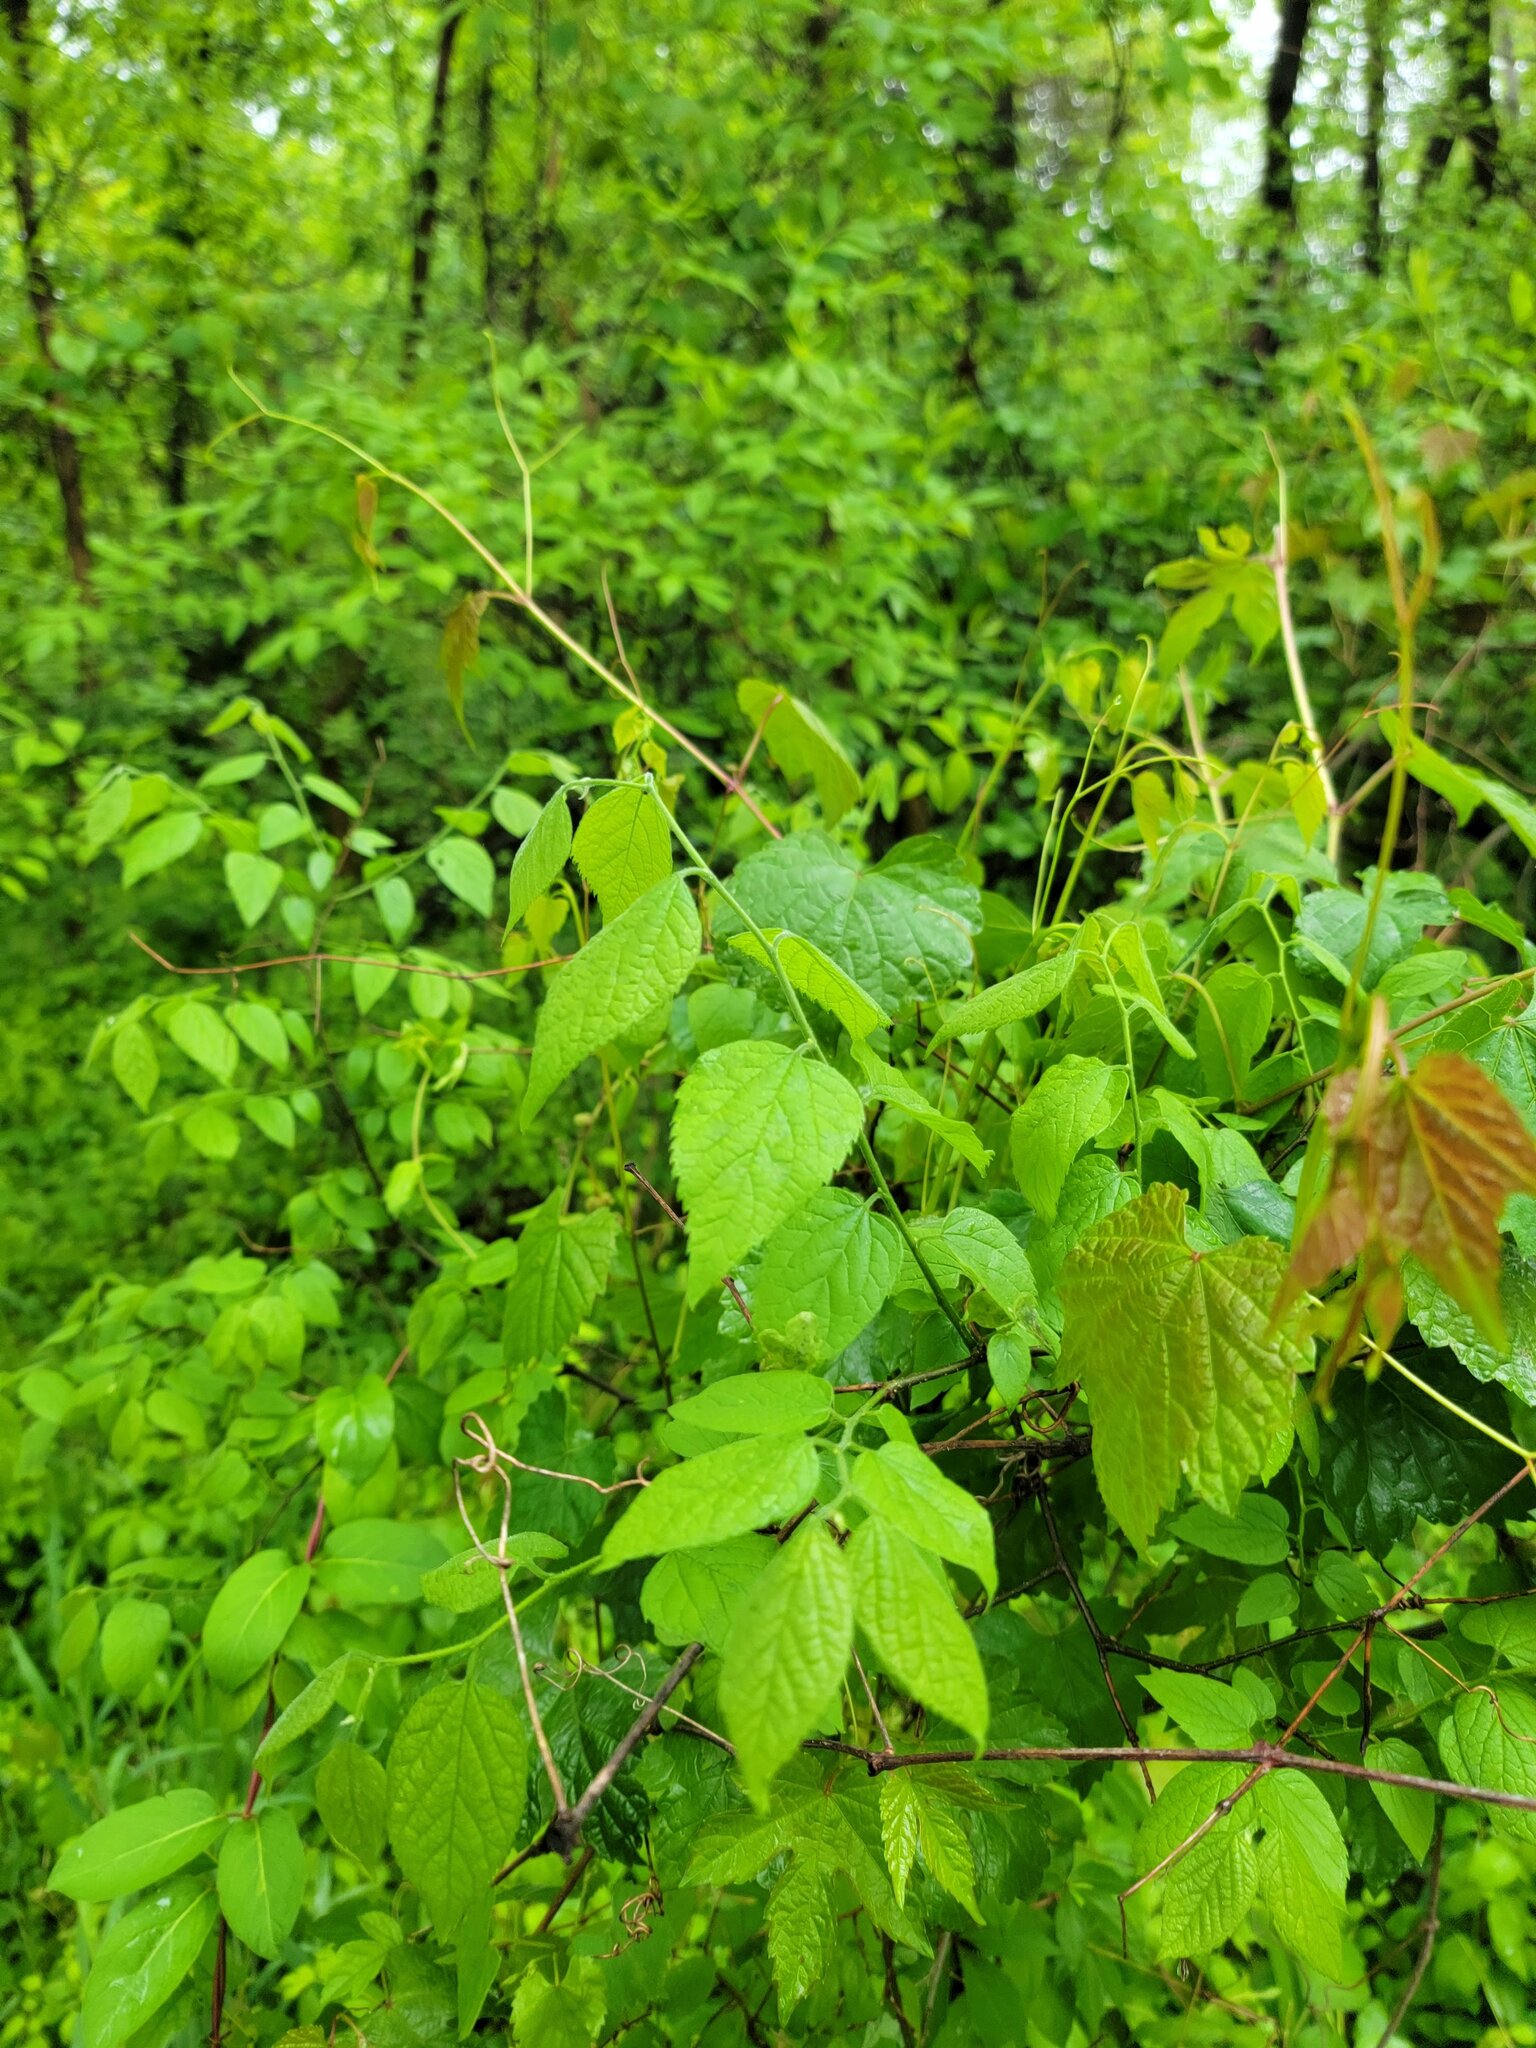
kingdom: Plantae
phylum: Tracheophyta
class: Magnoliopsida
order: Rosales
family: Cannabaceae
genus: Celtis
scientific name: Celtis occidentalis
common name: Common hackberry
